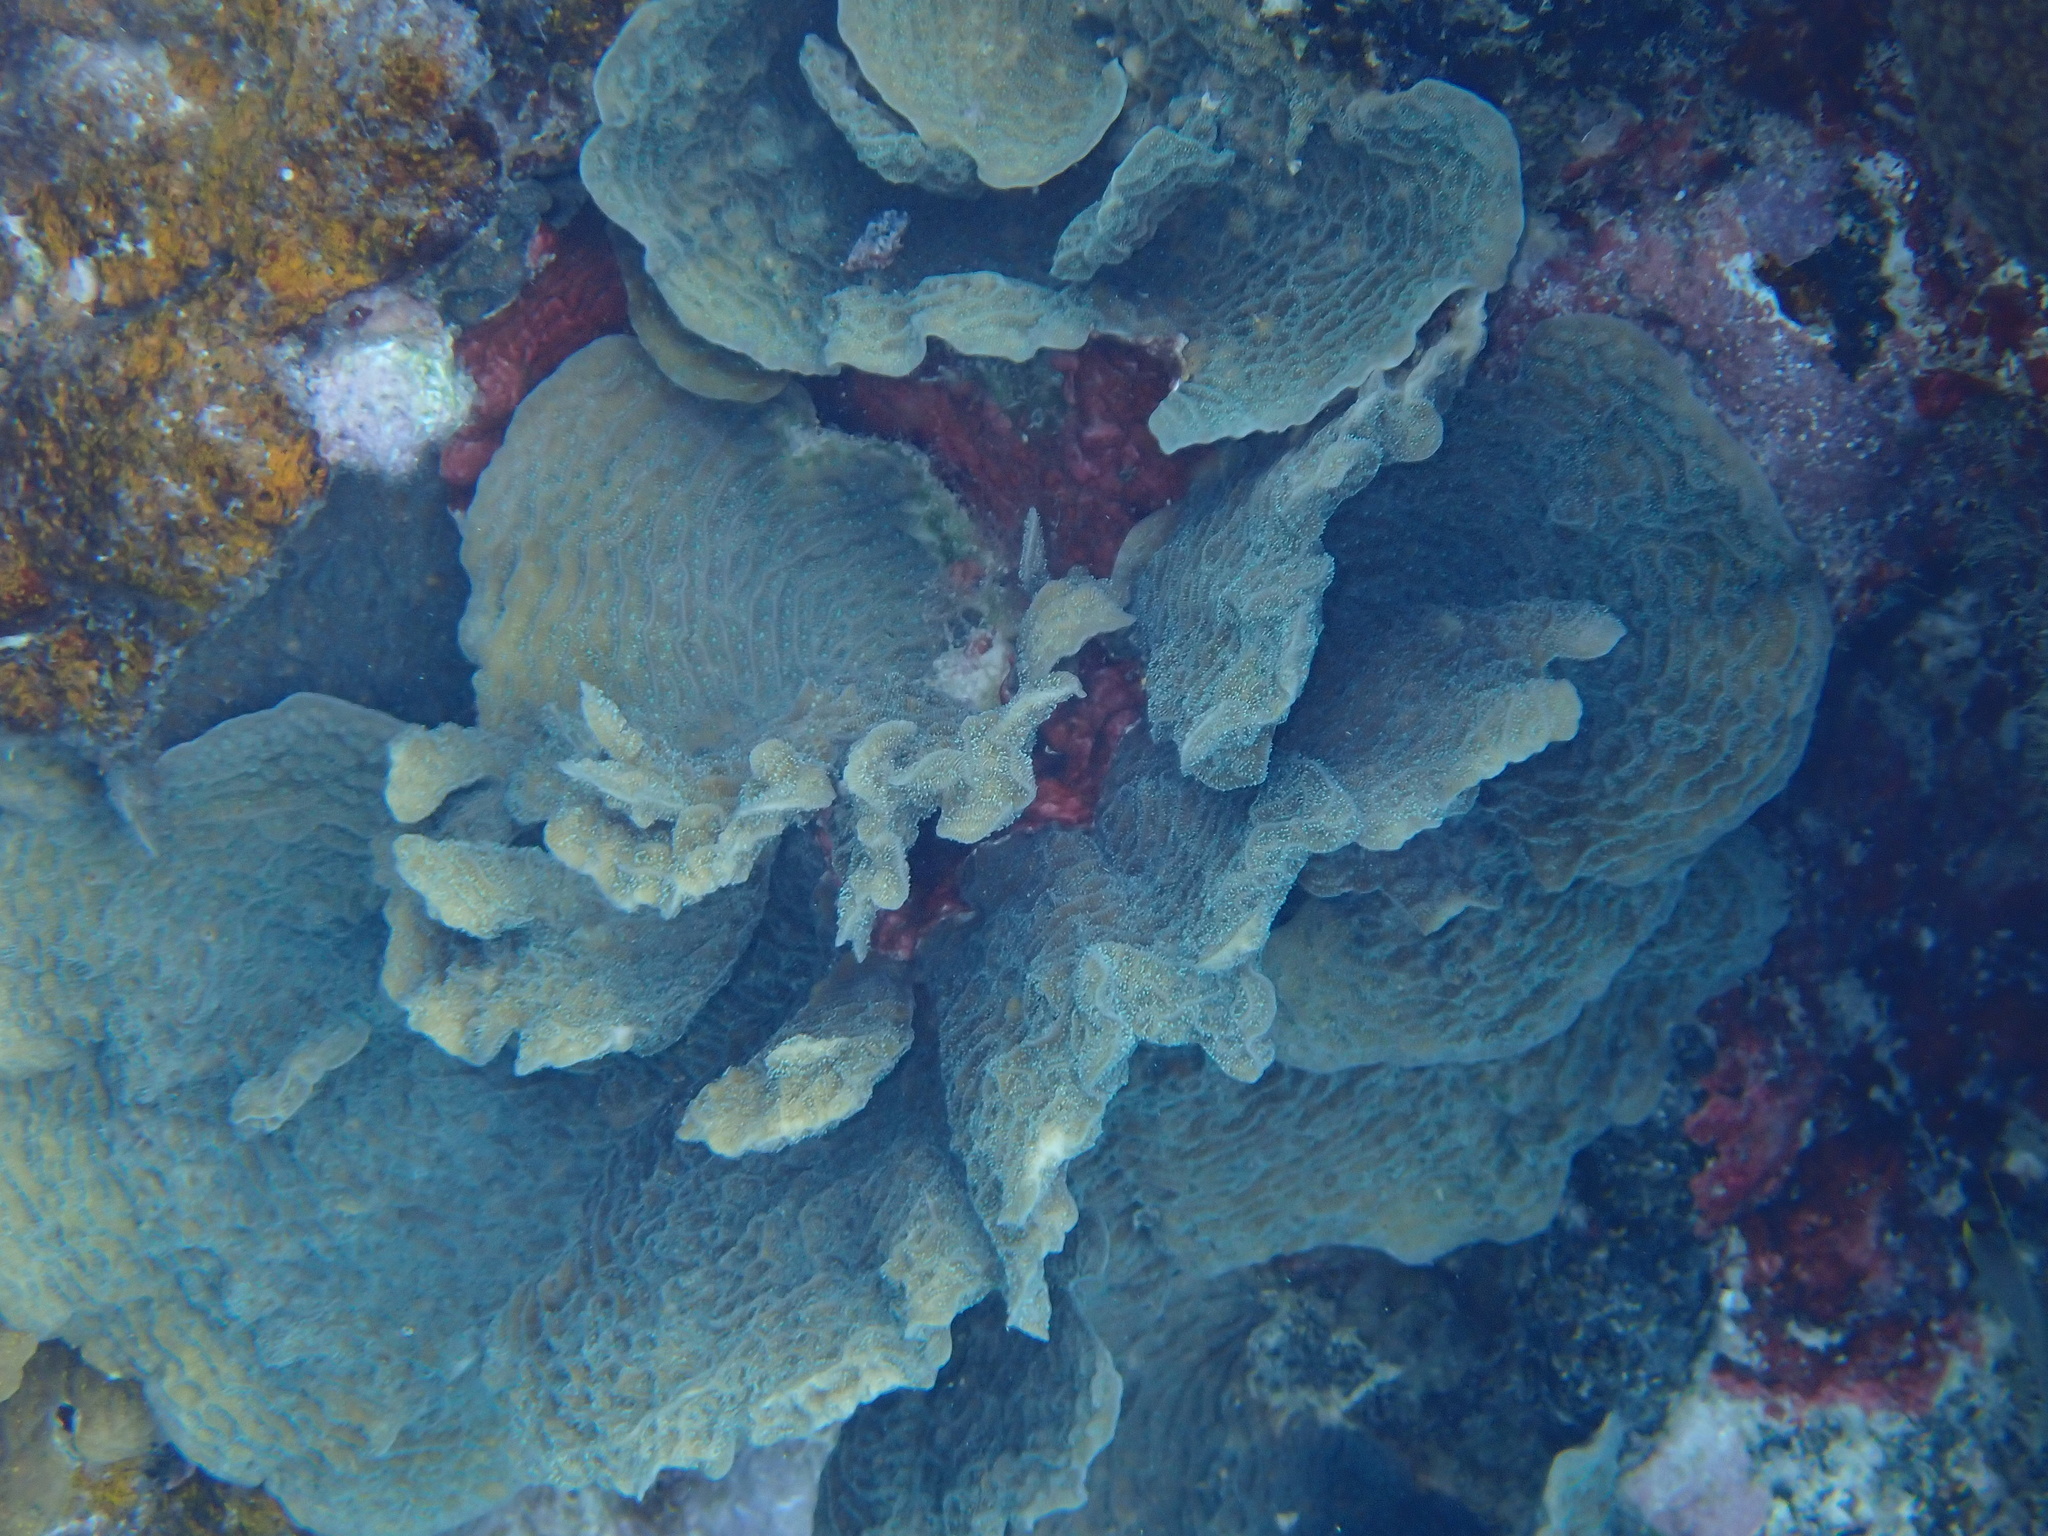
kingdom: Animalia
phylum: Cnidaria
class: Anthozoa
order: Scleractinia
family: Agariciidae
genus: Agaricia
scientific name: Agaricia agaricites
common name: Lettuce coral
